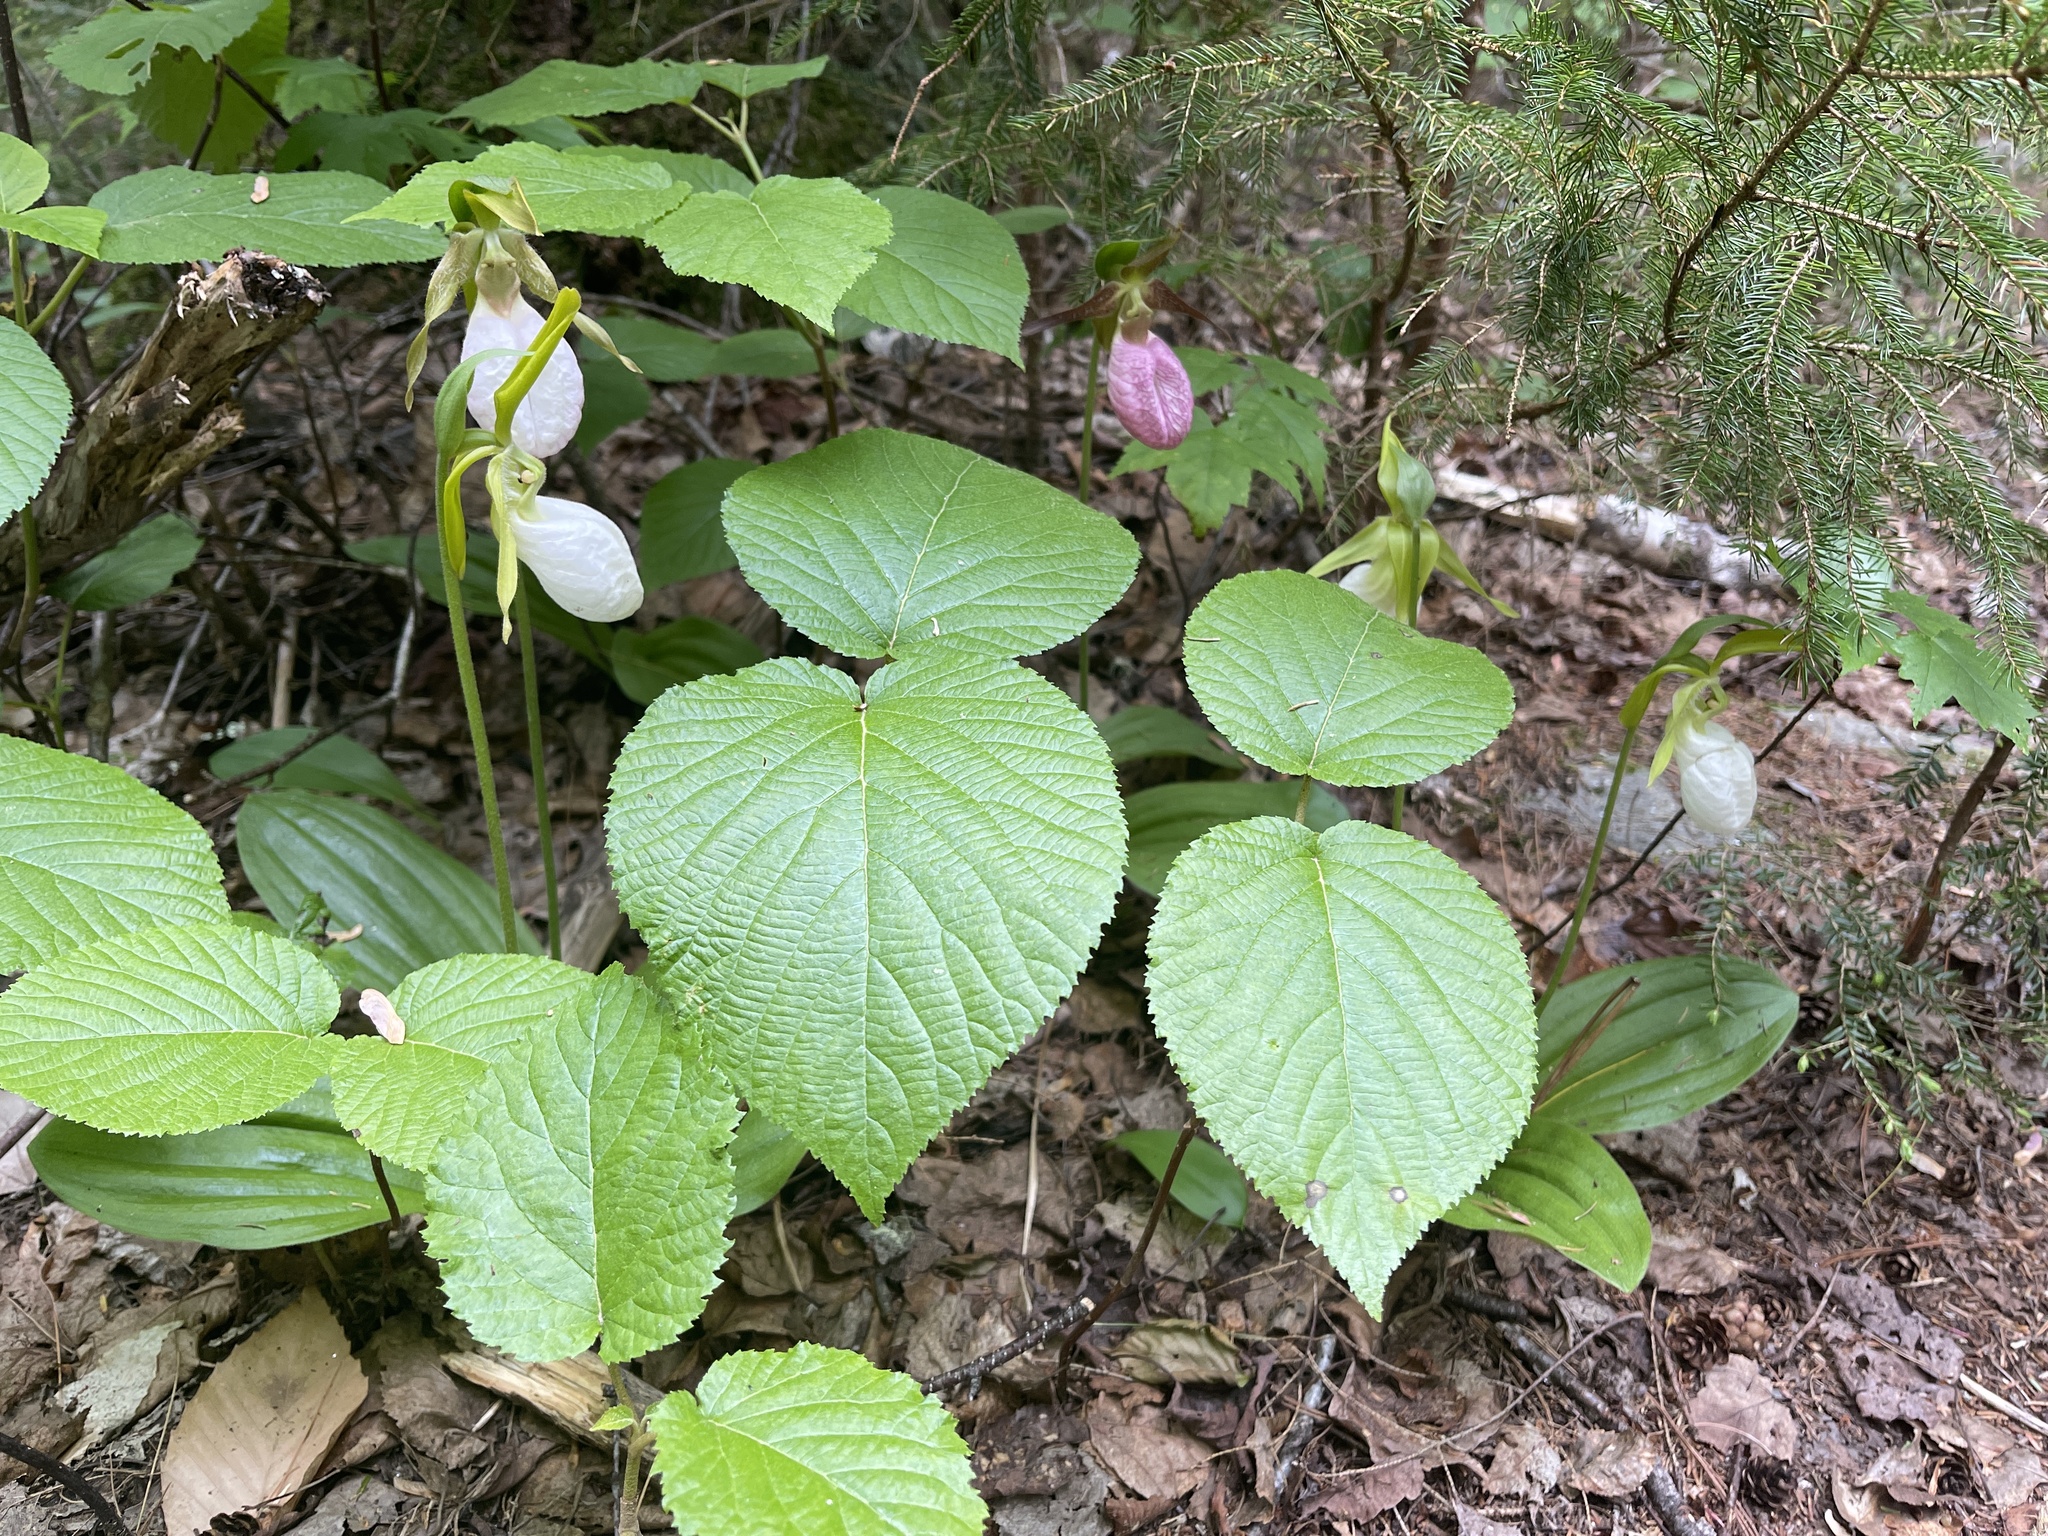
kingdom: Plantae
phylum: Tracheophyta
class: Liliopsida
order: Asparagales
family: Orchidaceae
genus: Cypripedium
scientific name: Cypripedium acaule
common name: Pink lady's-slipper
